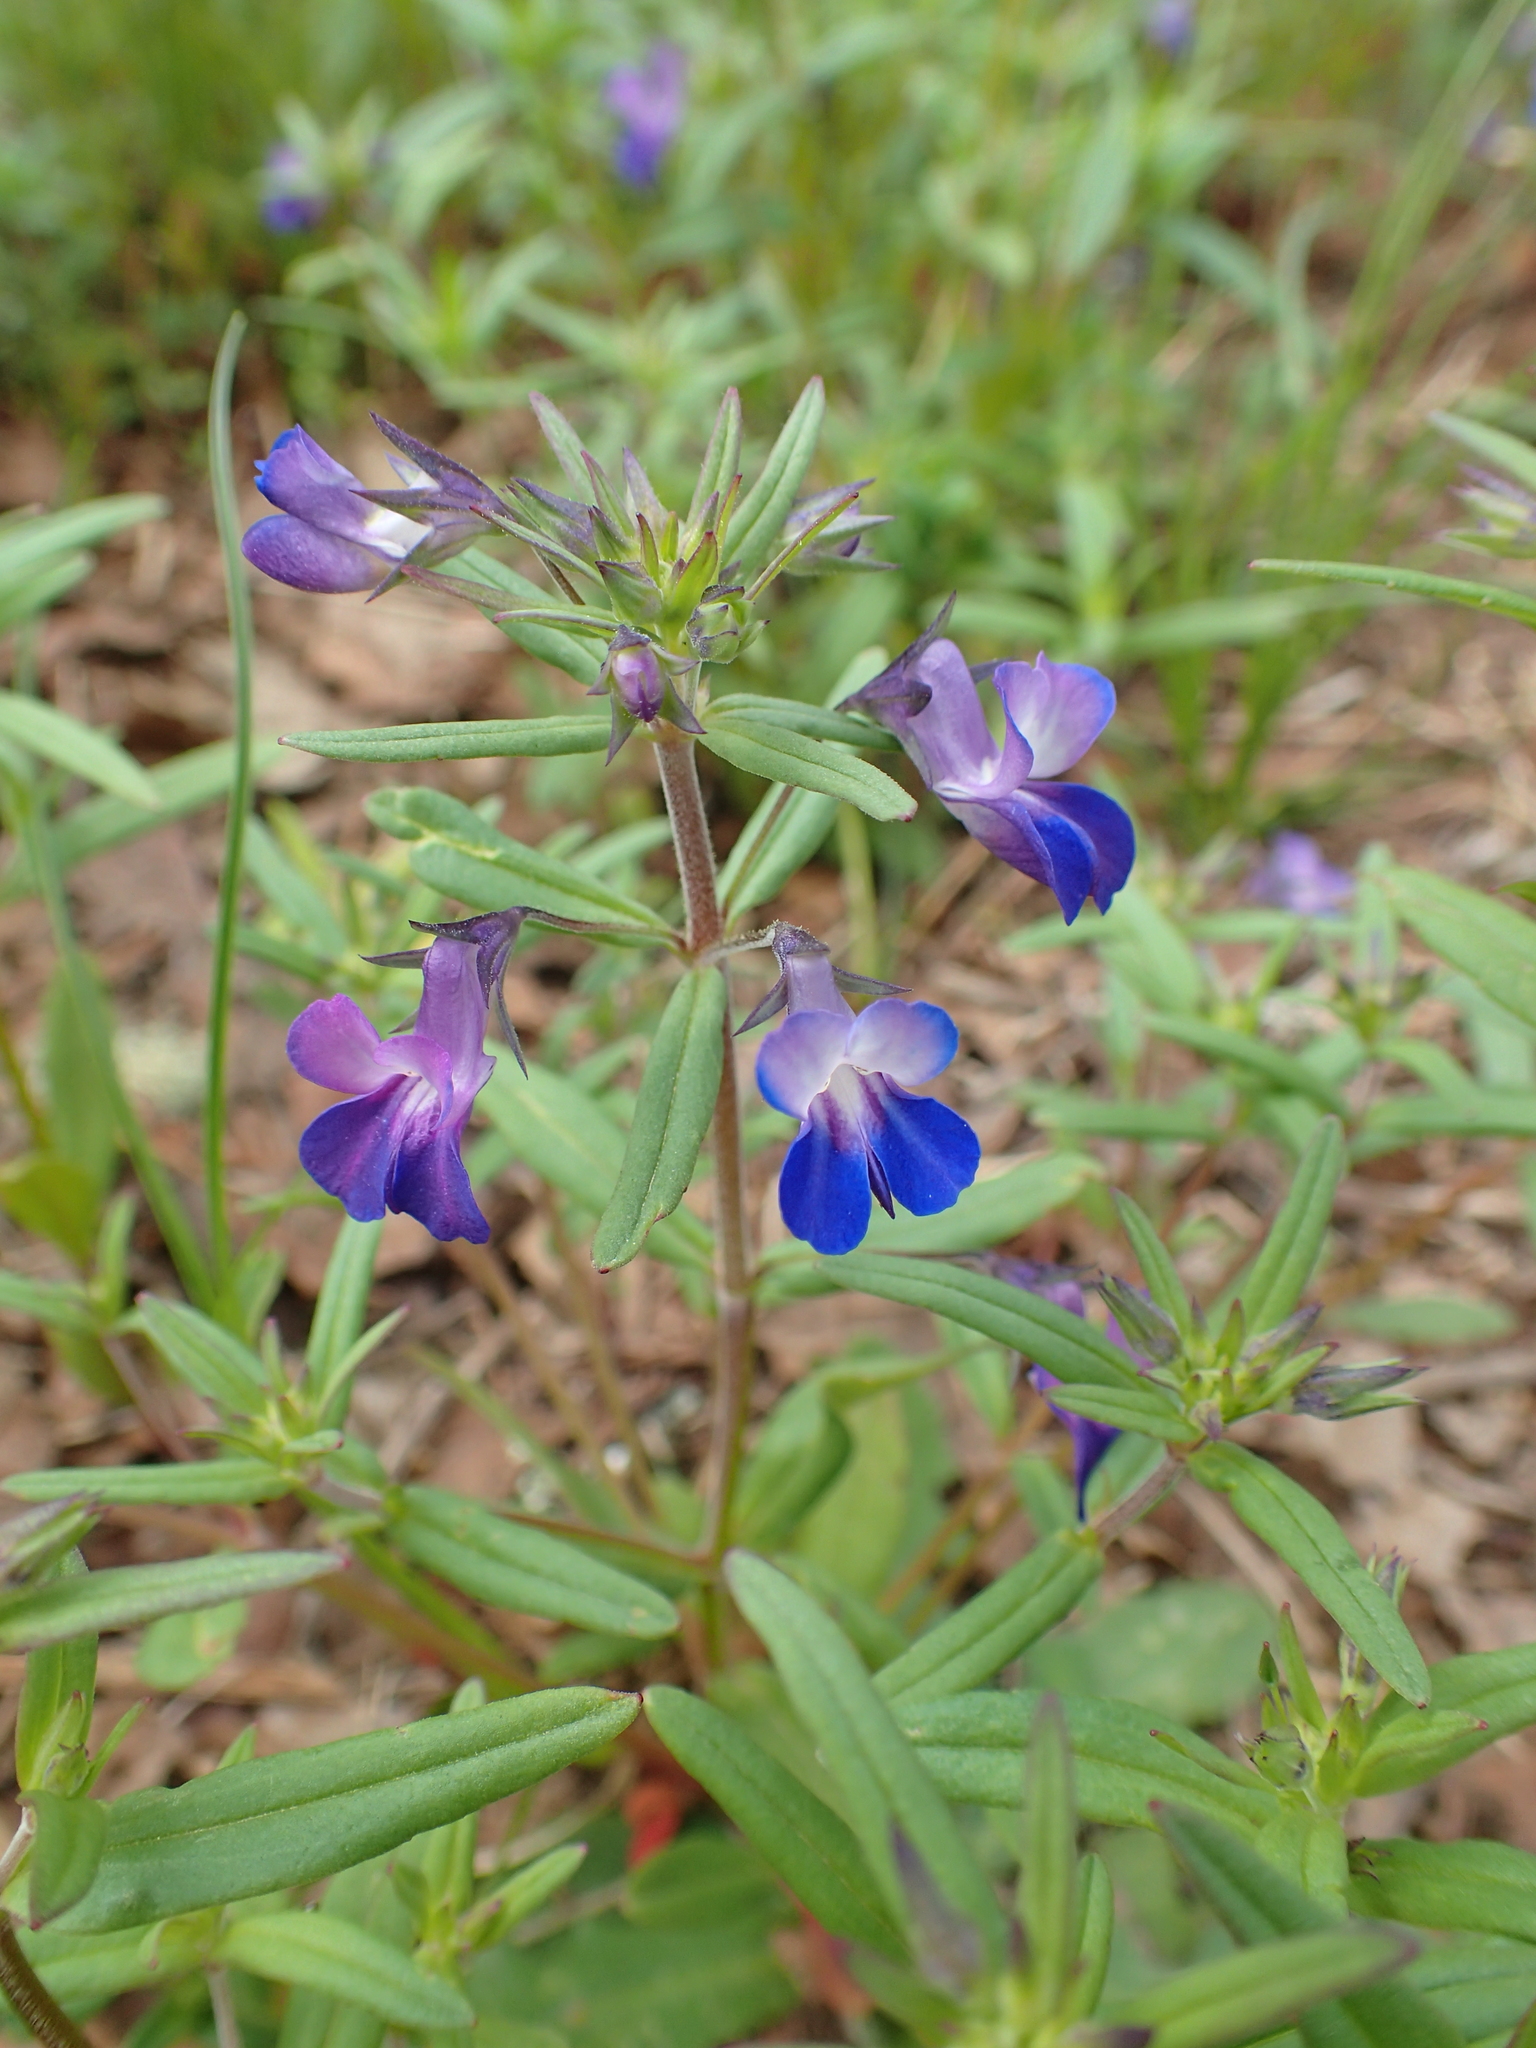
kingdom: Plantae
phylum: Tracheophyta
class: Magnoliopsida
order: Lamiales
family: Plantaginaceae
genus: Collinsia
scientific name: Collinsia grandiflora
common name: Large-flower blue-eyed-mary
